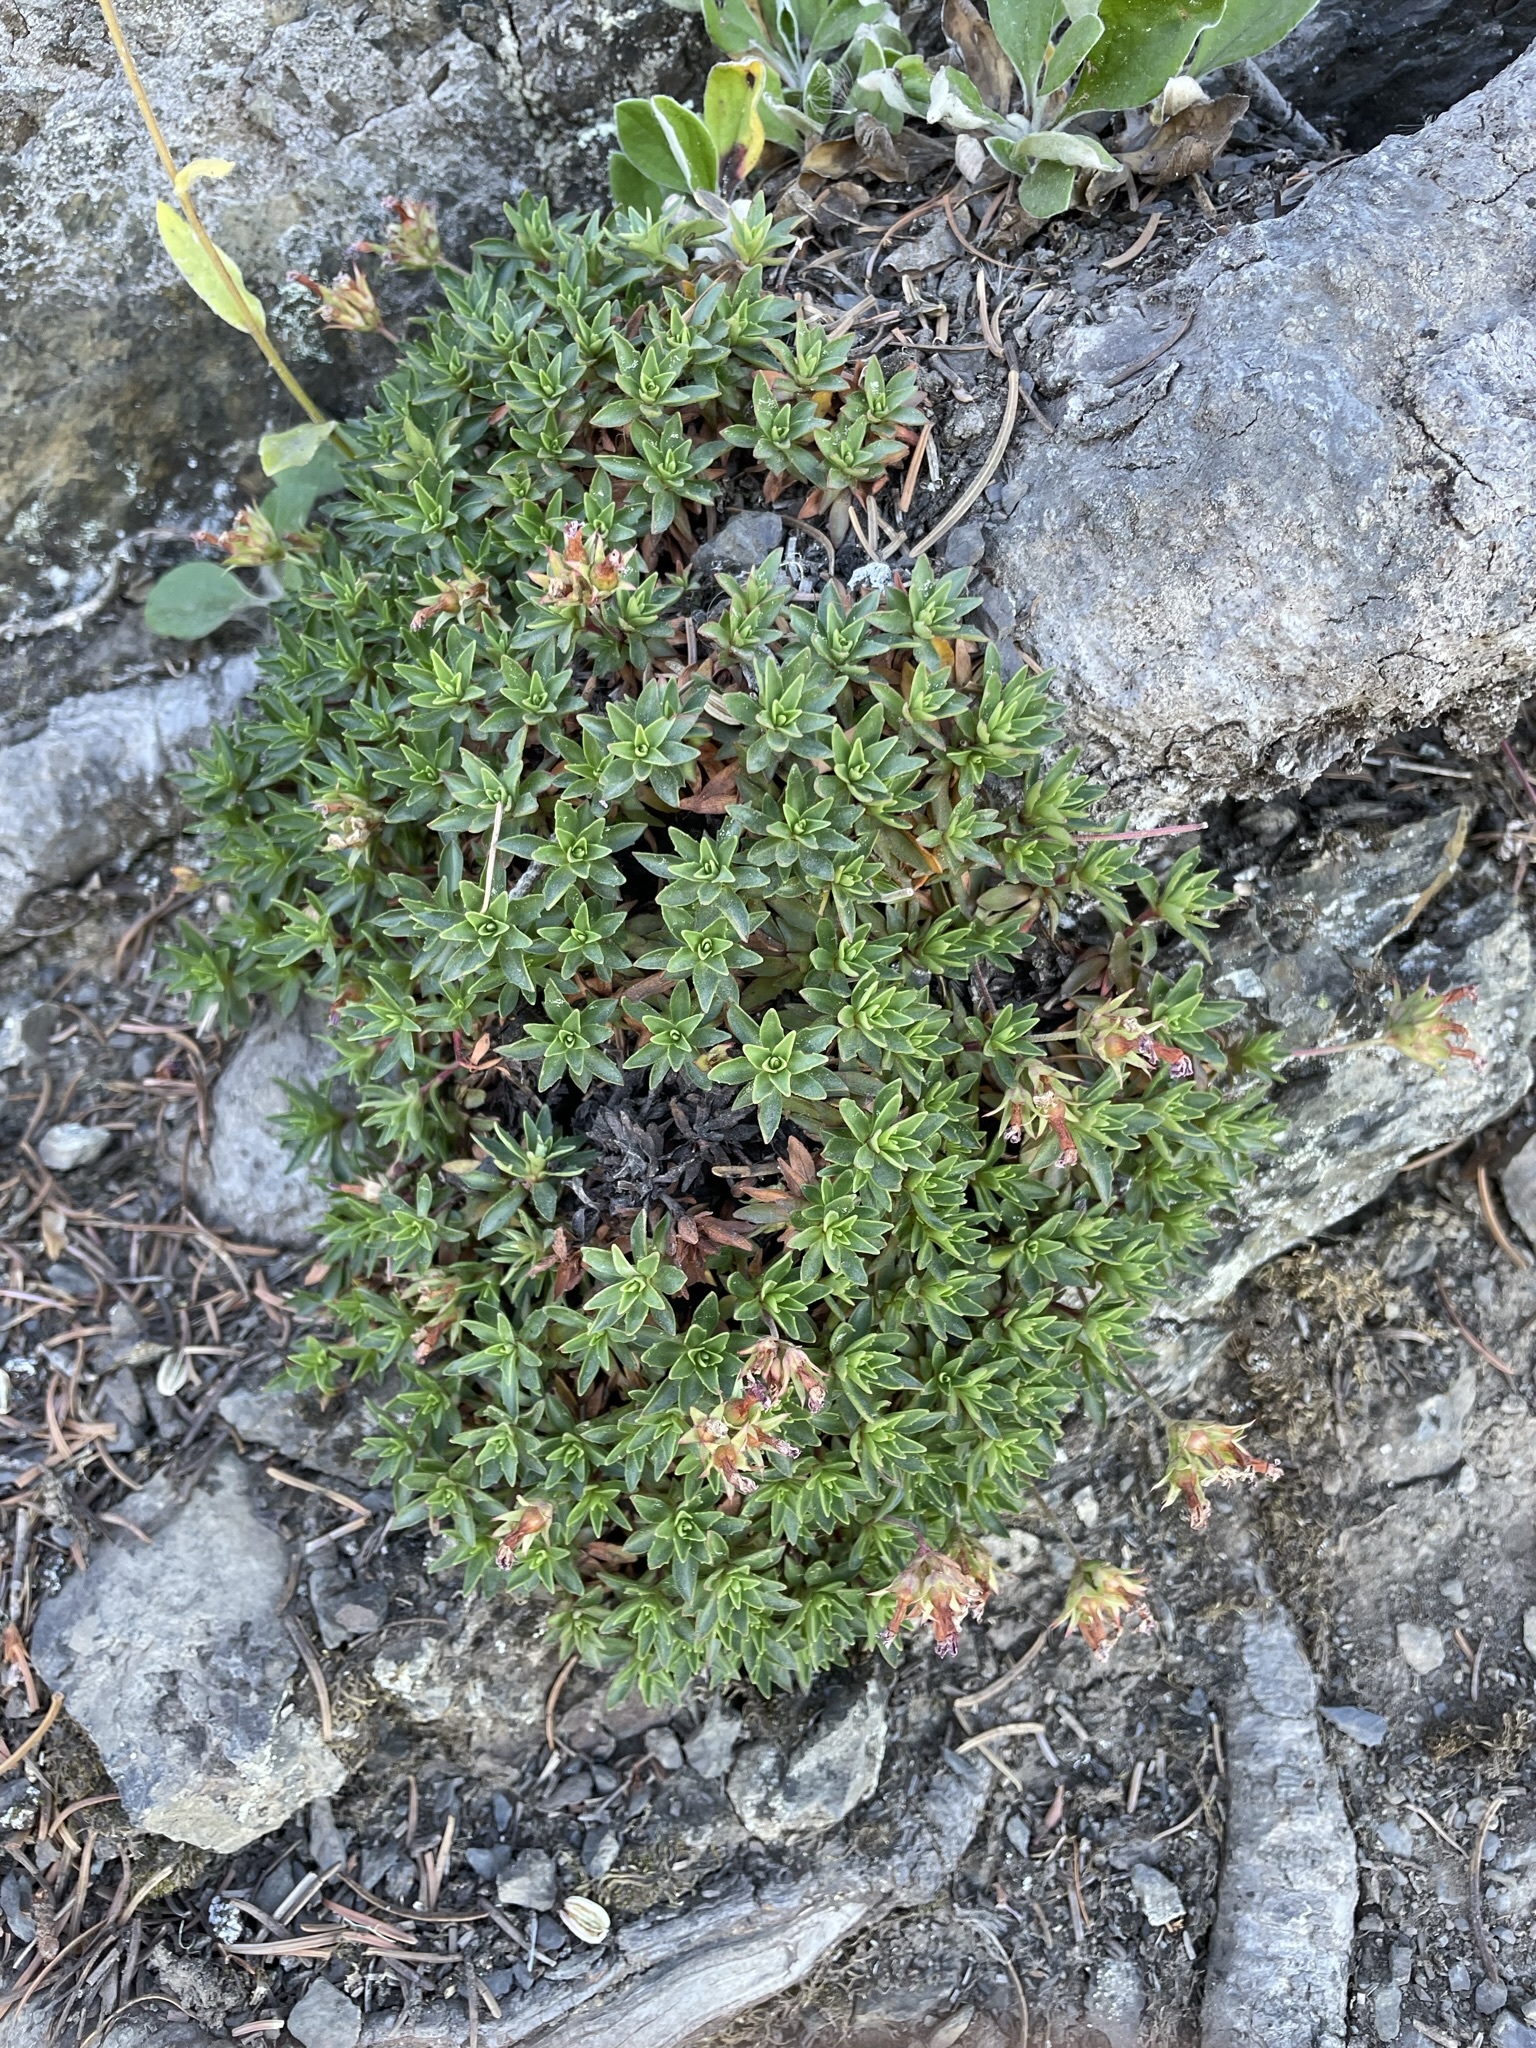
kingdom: Plantae
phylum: Tracheophyta
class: Magnoliopsida
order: Ericales
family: Primulaceae
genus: Androsace
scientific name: Androsace laevigata
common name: Cliff dwarf-primrose
